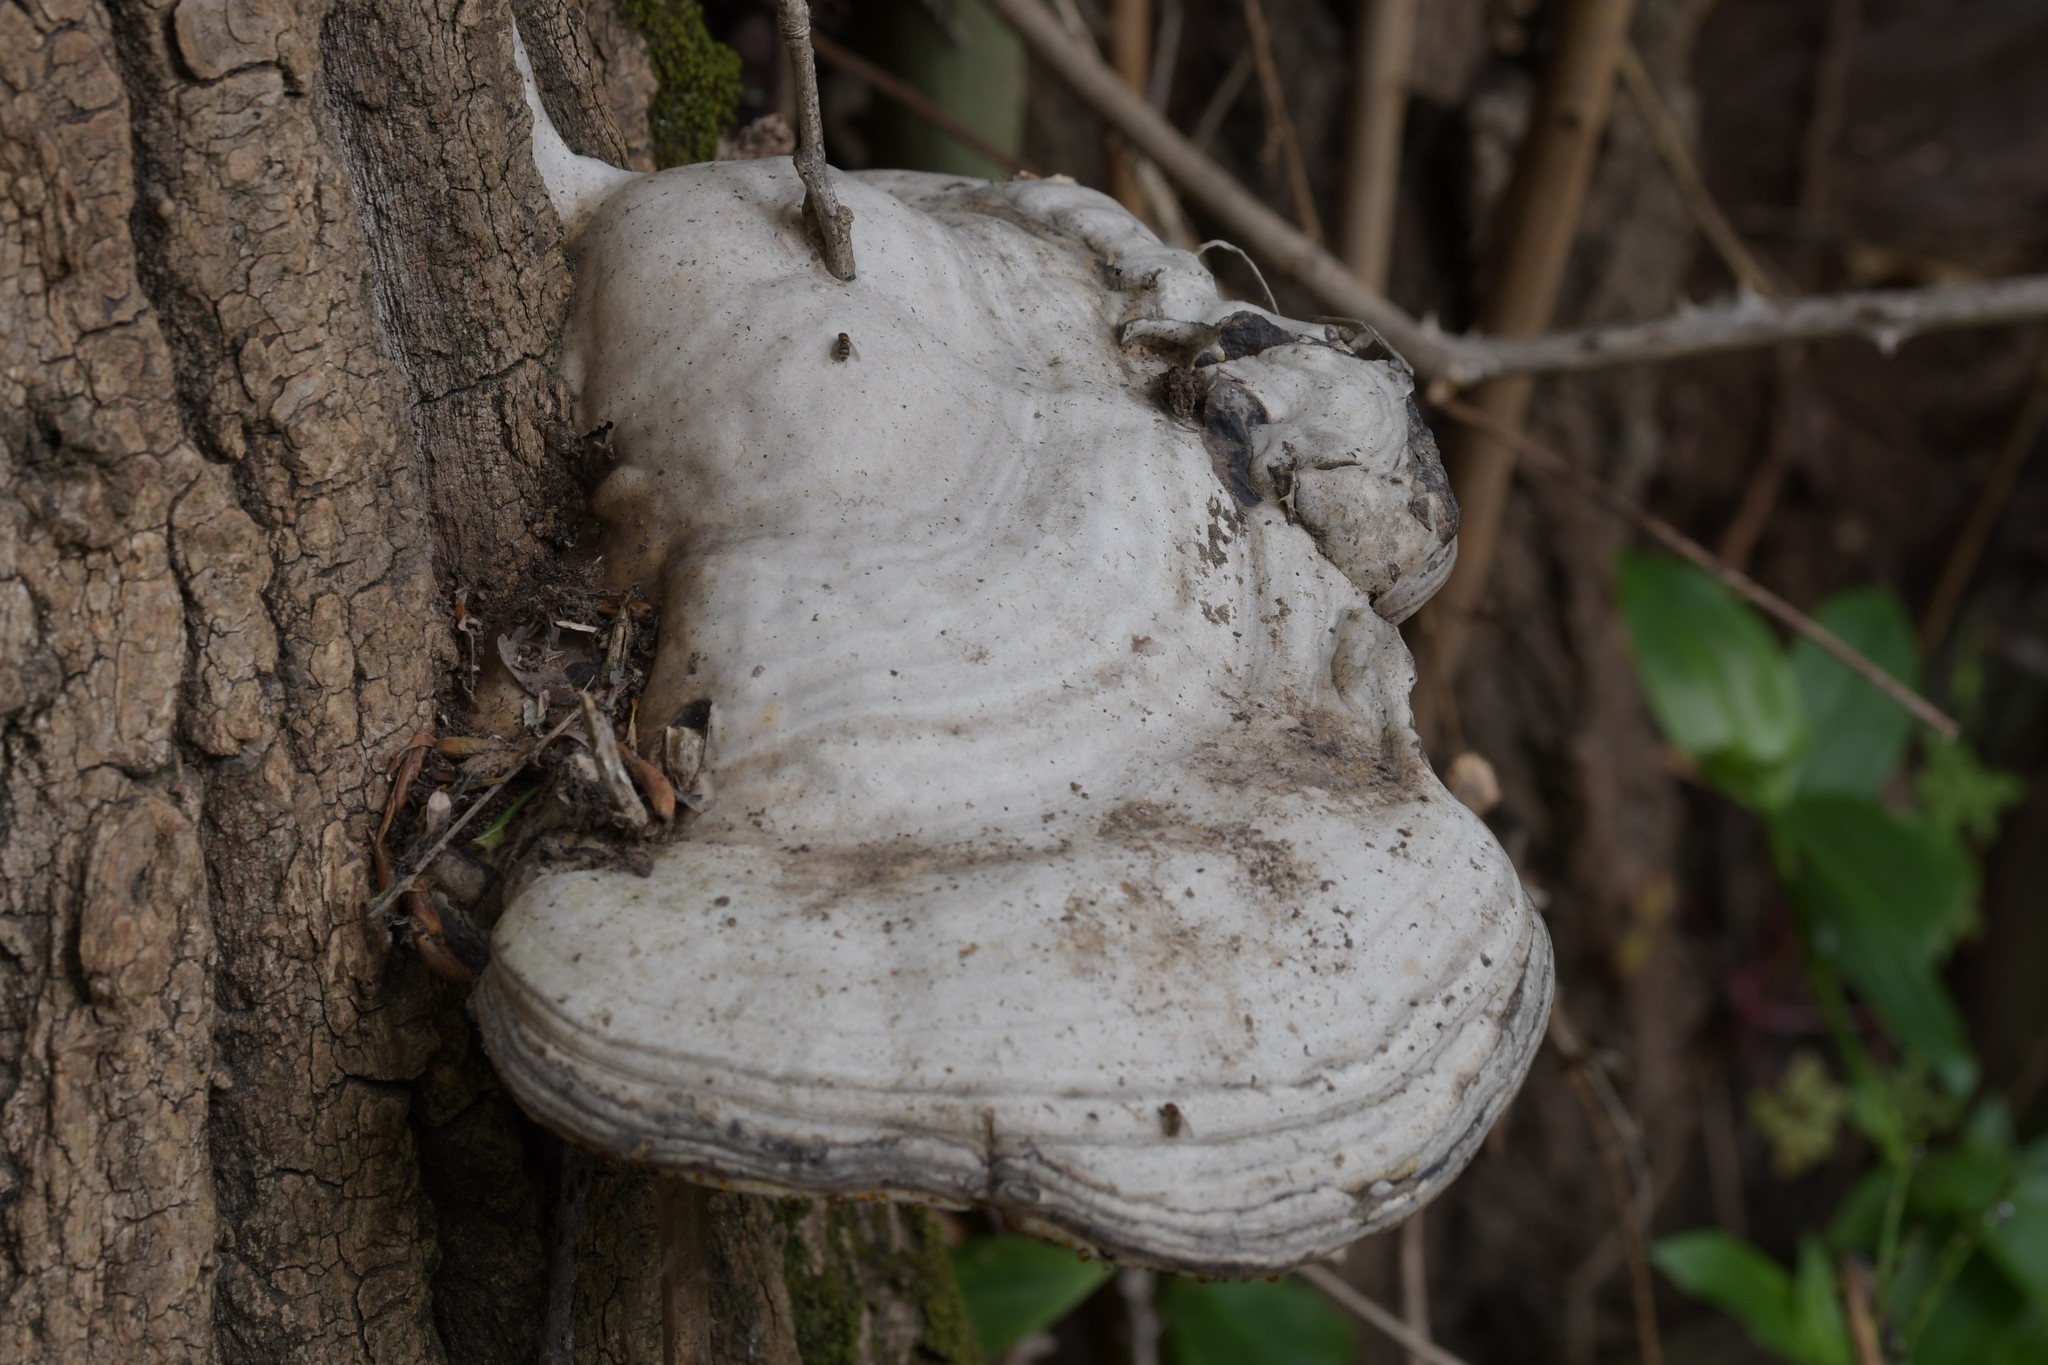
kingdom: Fungi
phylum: Basidiomycota
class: Agaricomycetes
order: Polyporales
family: Polyporaceae
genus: Fomes
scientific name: Fomes fomentarius
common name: Hoof fungus
